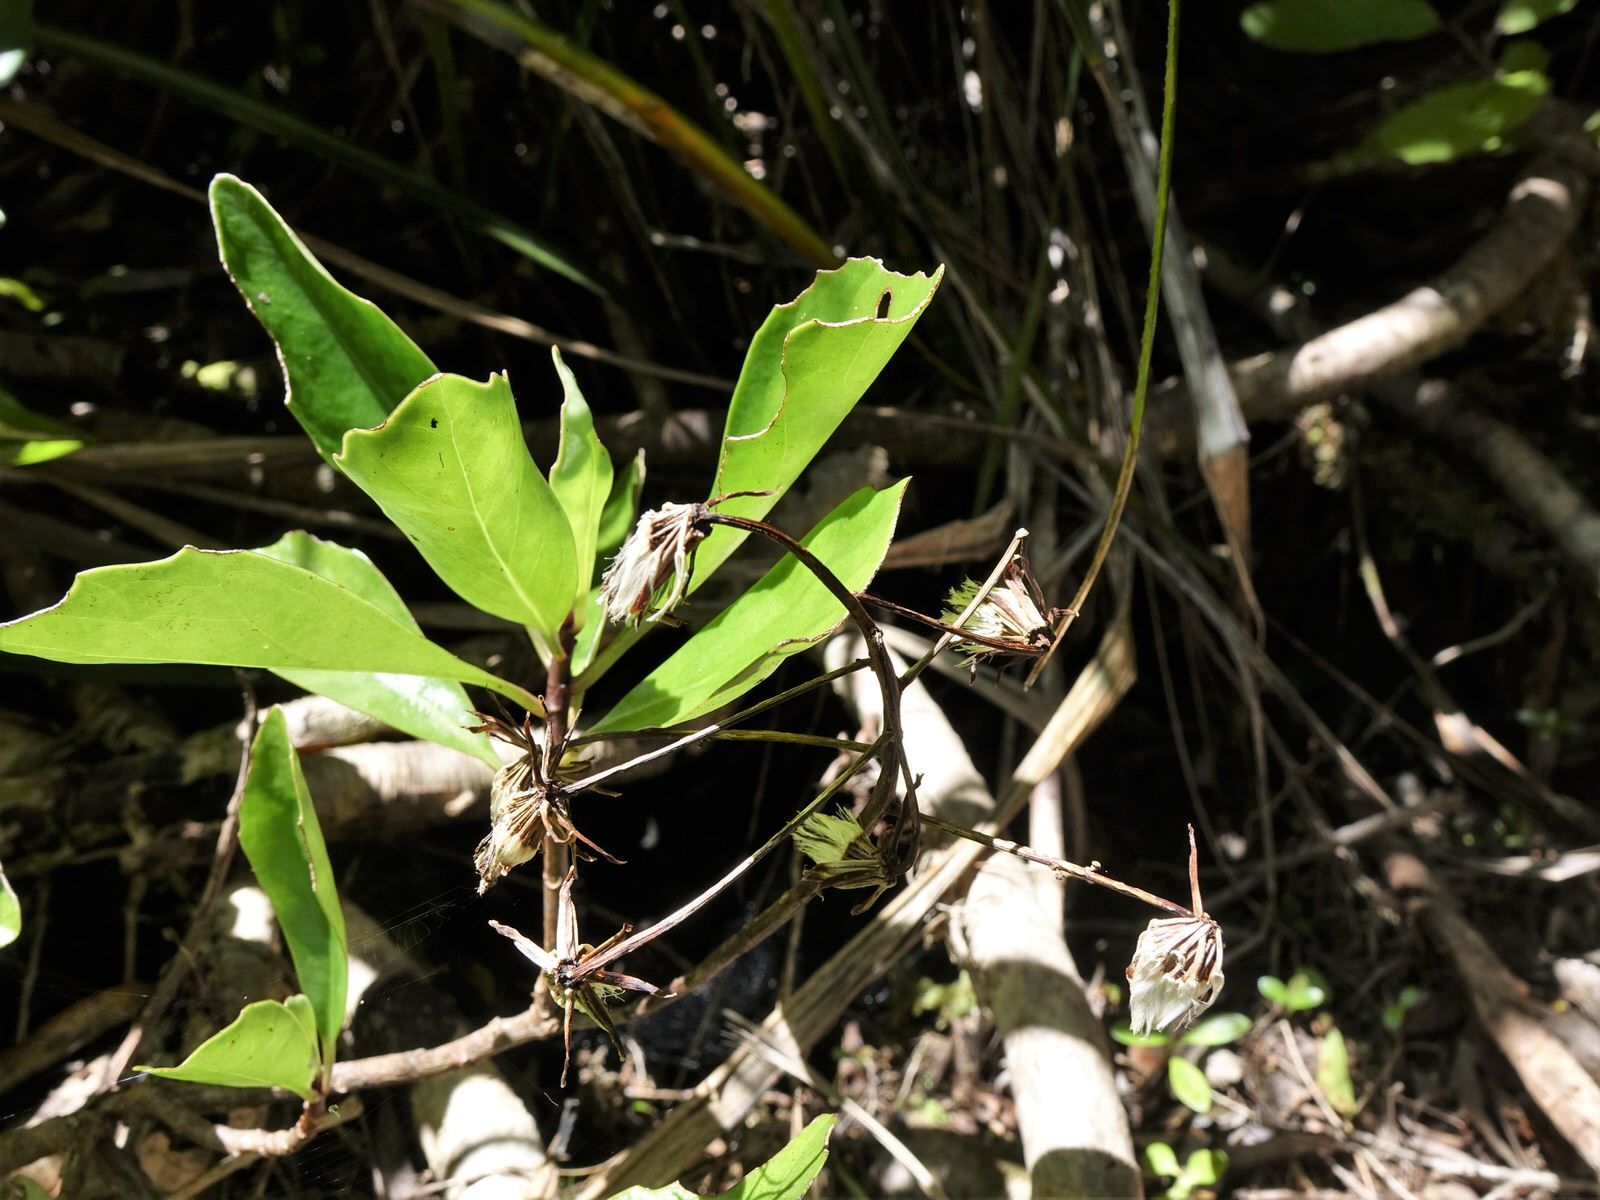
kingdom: Plantae
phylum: Tracheophyta
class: Magnoliopsida
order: Asterales
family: Asteraceae
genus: Brachyglottis
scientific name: Brachyglottis kirkii
